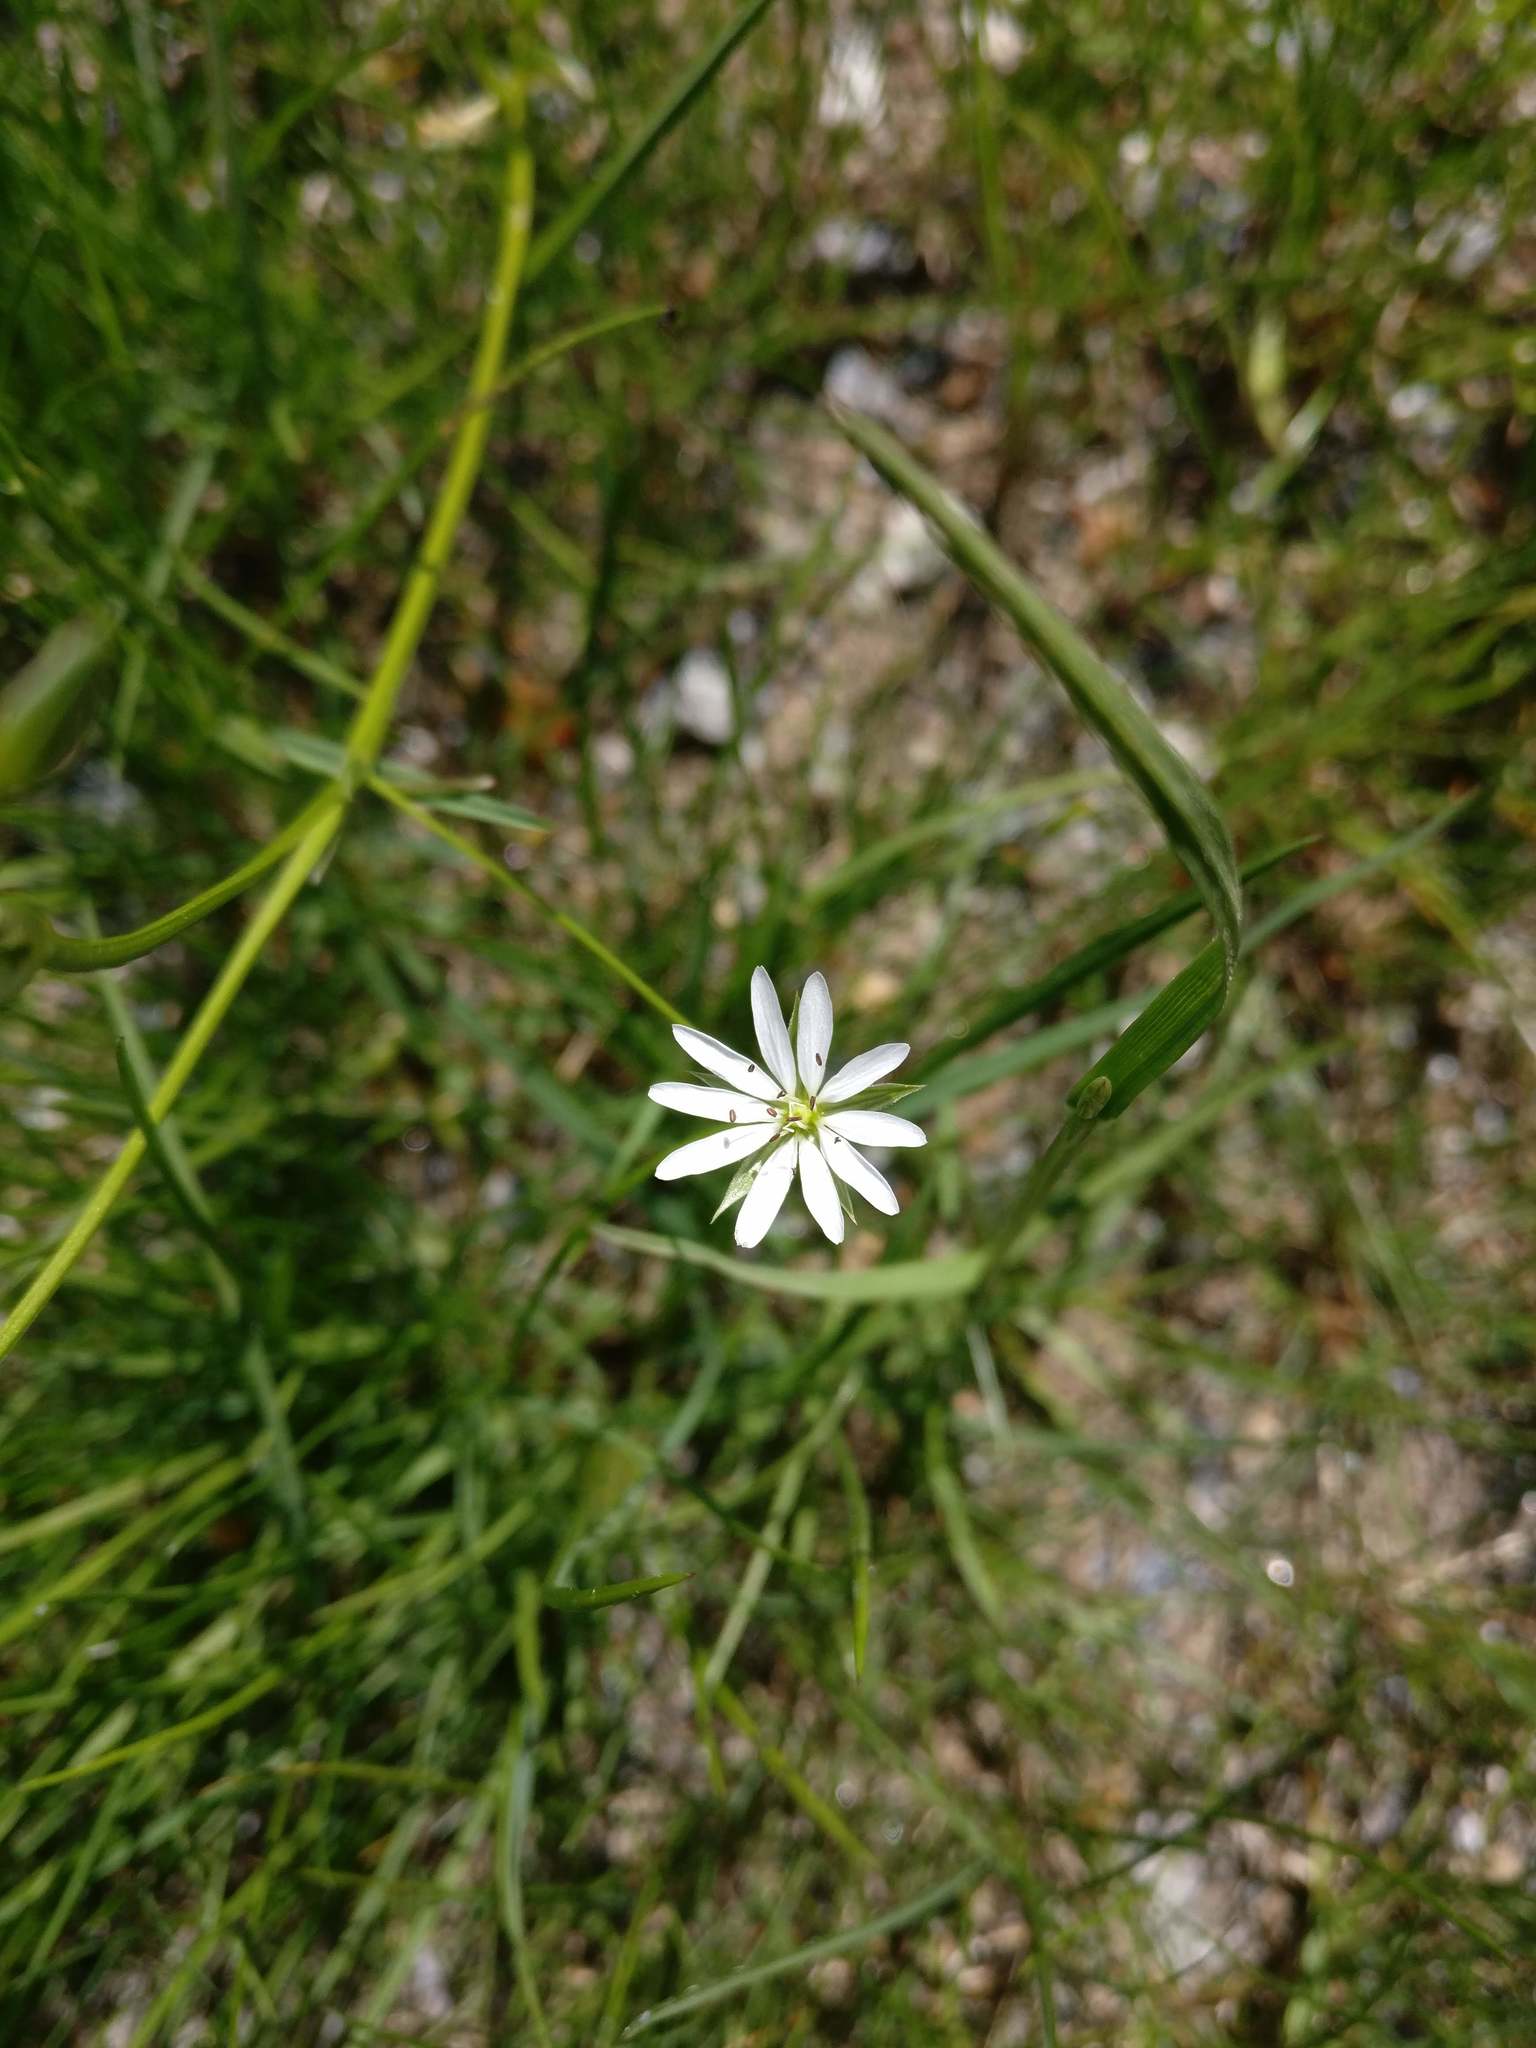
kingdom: Plantae
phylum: Tracheophyta
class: Magnoliopsida
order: Caryophyllales
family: Caryophyllaceae
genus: Stellaria
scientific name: Stellaria graminea
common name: Grass-like starwort
